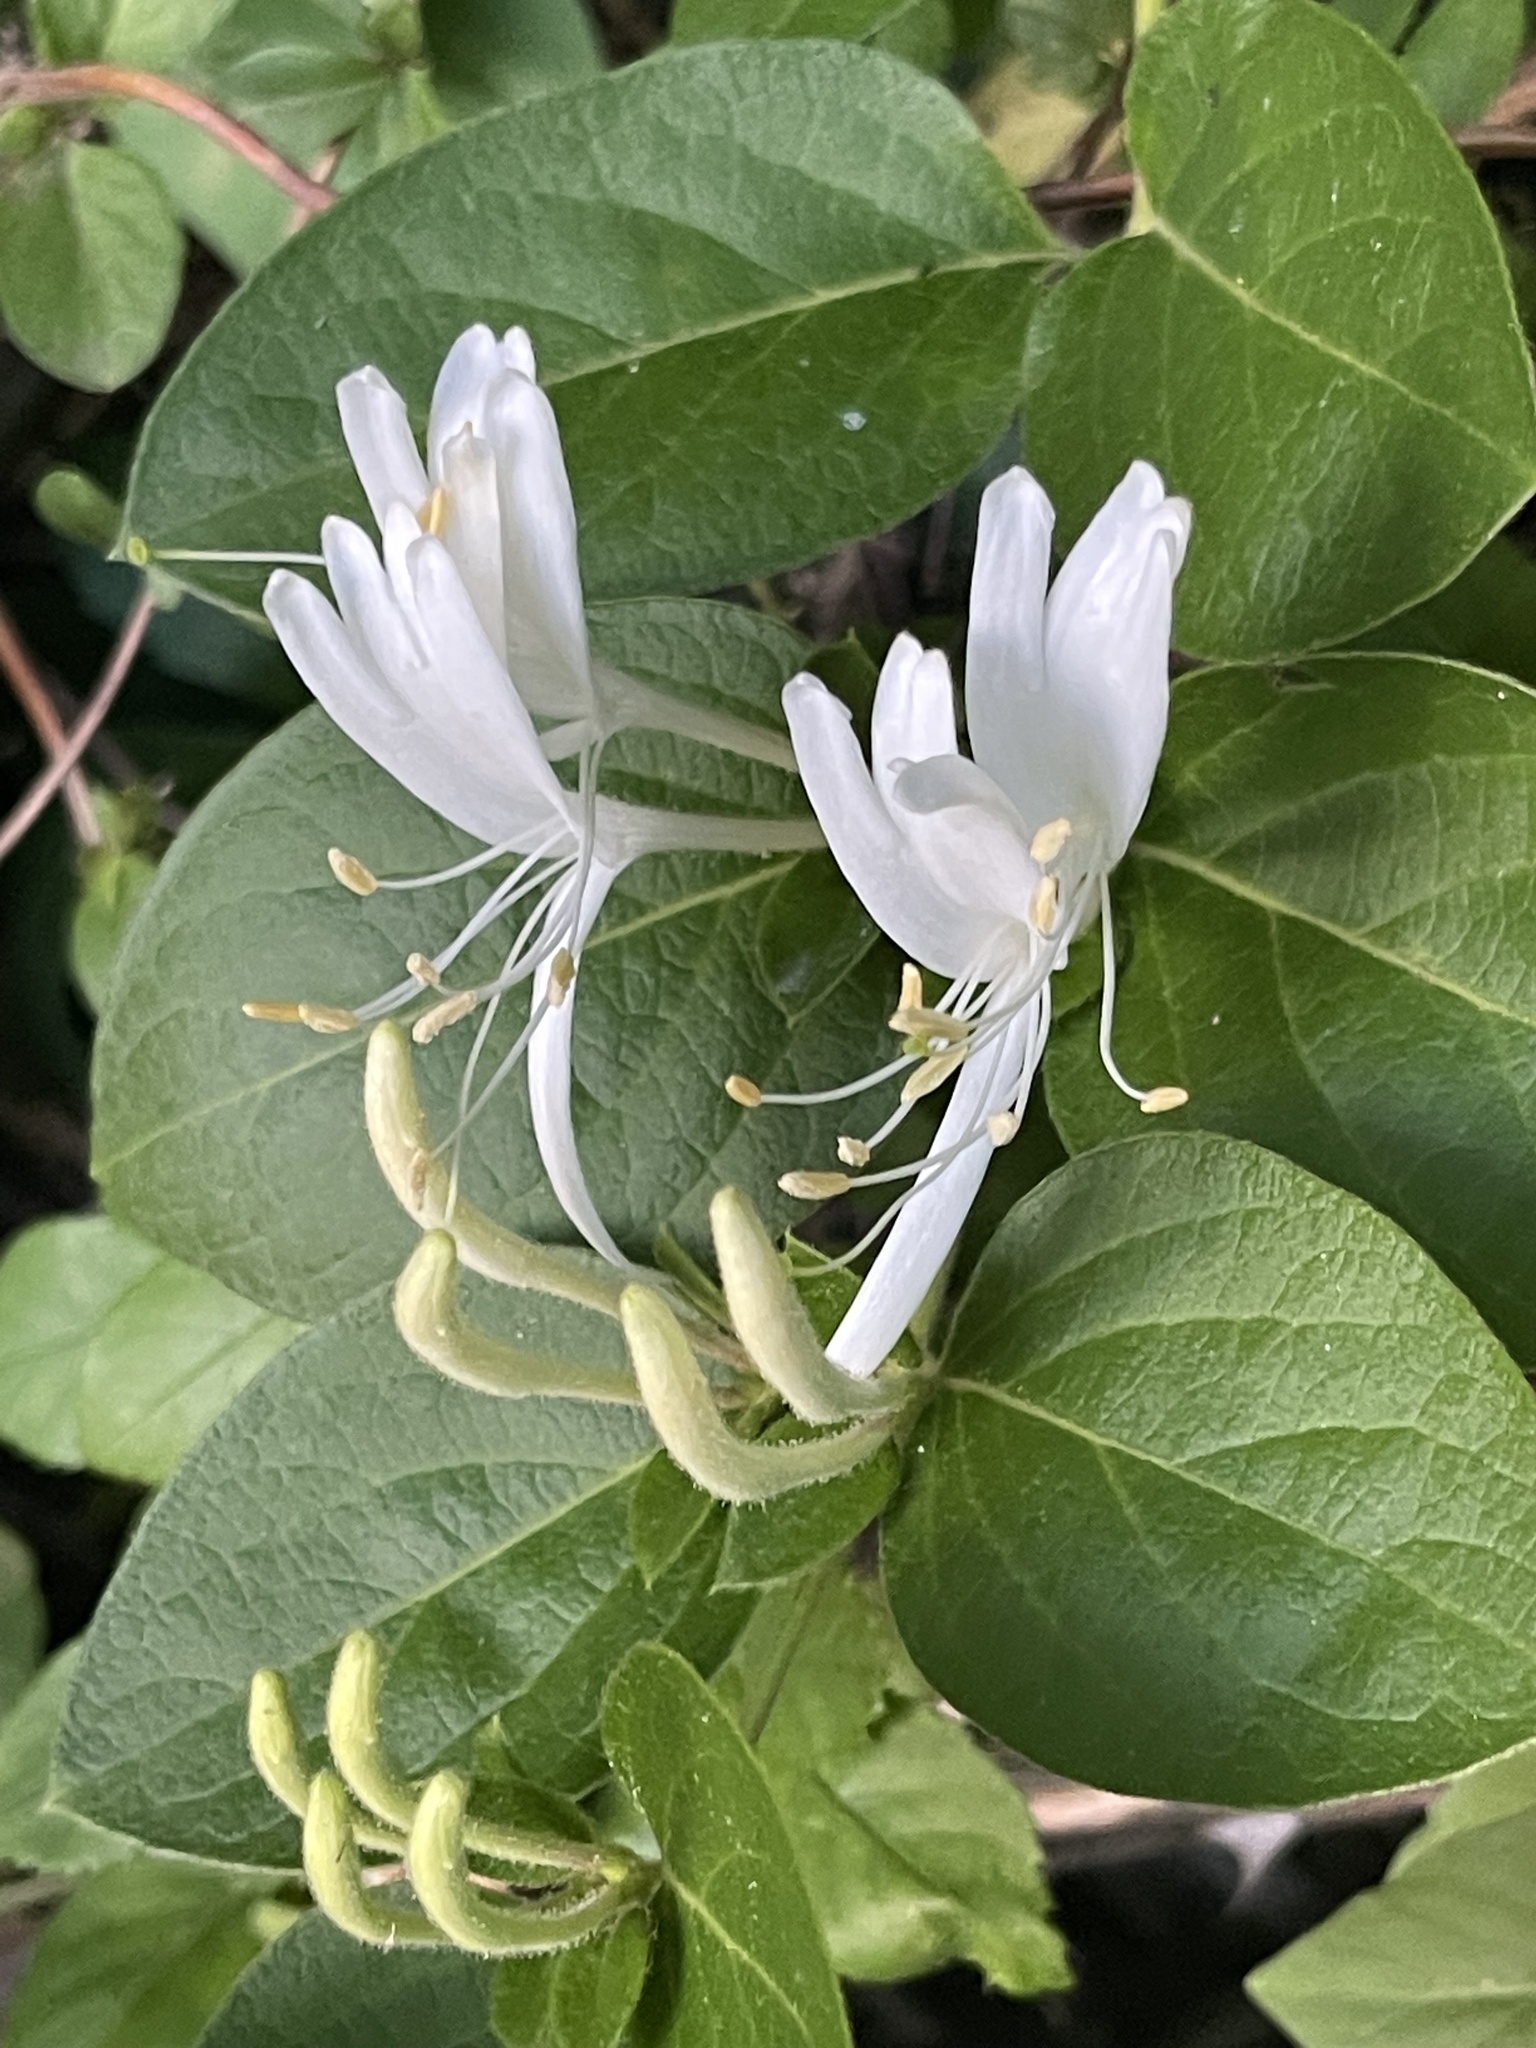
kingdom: Plantae
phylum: Tracheophyta
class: Magnoliopsida
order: Dipsacales
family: Caprifoliaceae
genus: Lonicera
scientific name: Lonicera japonica
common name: Japanese honeysuckle
